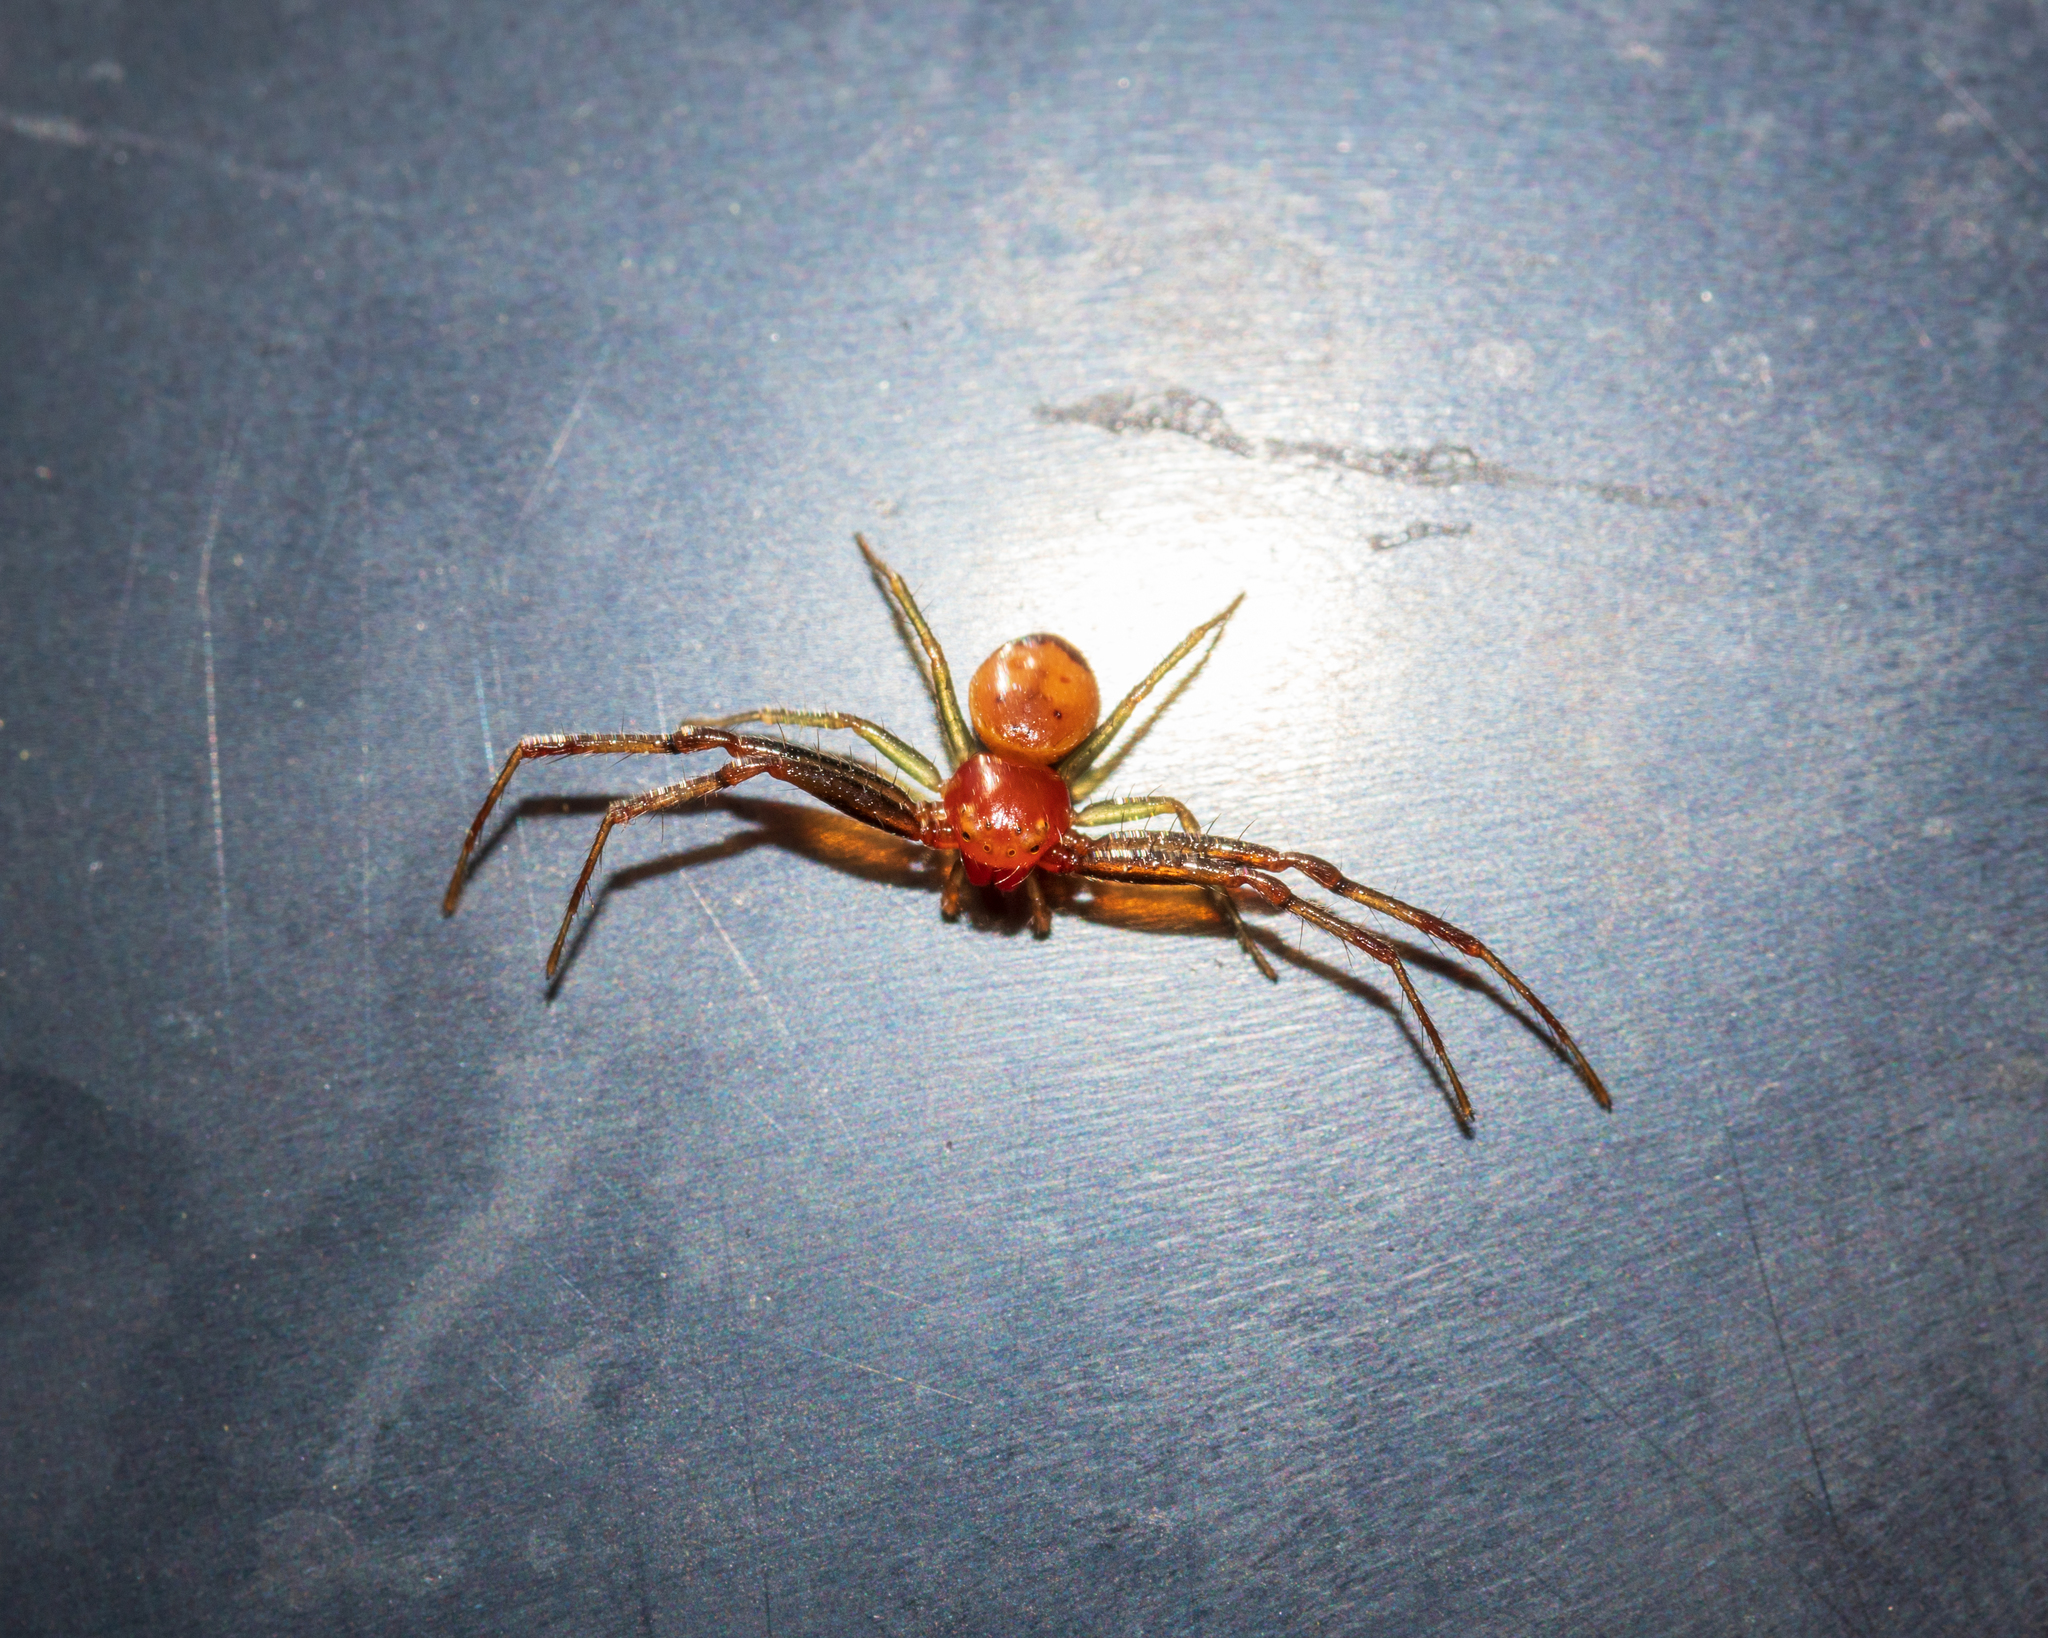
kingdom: Animalia
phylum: Arthropoda
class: Arachnida
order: Araneae
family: Thomisidae
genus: Synema
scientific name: Synema parvulum
